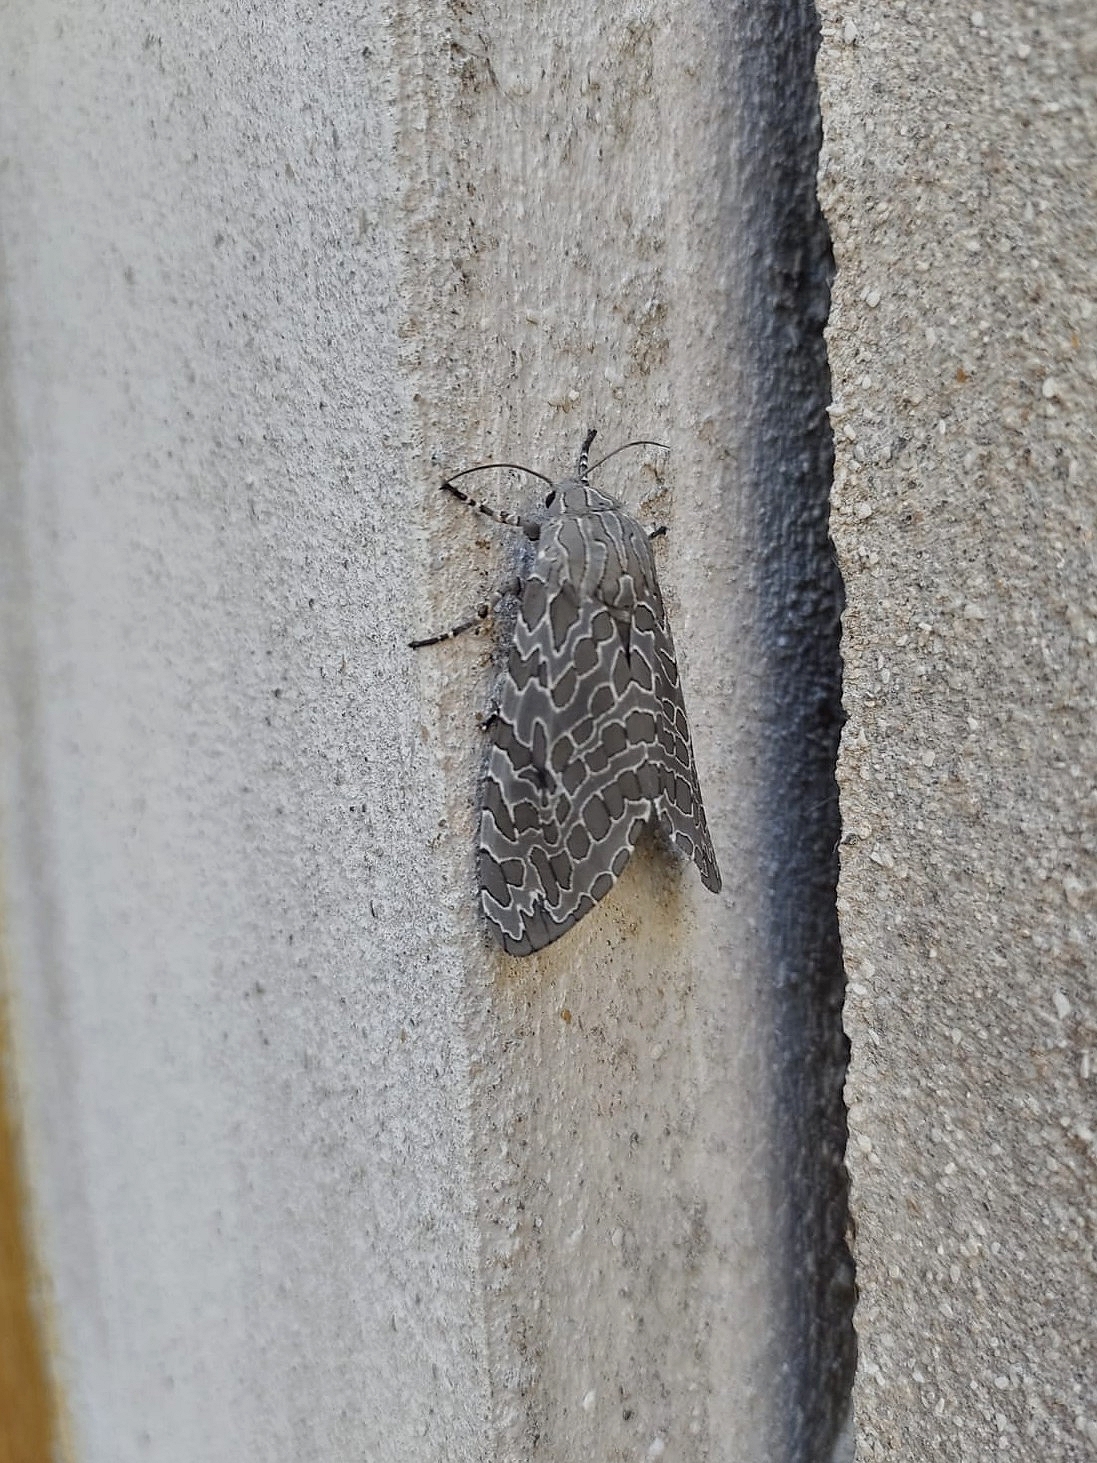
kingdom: Animalia
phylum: Arthropoda
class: Insecta
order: Lepidoptera
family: Erebidae
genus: Hypercompe
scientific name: Hypercompe indecisa
